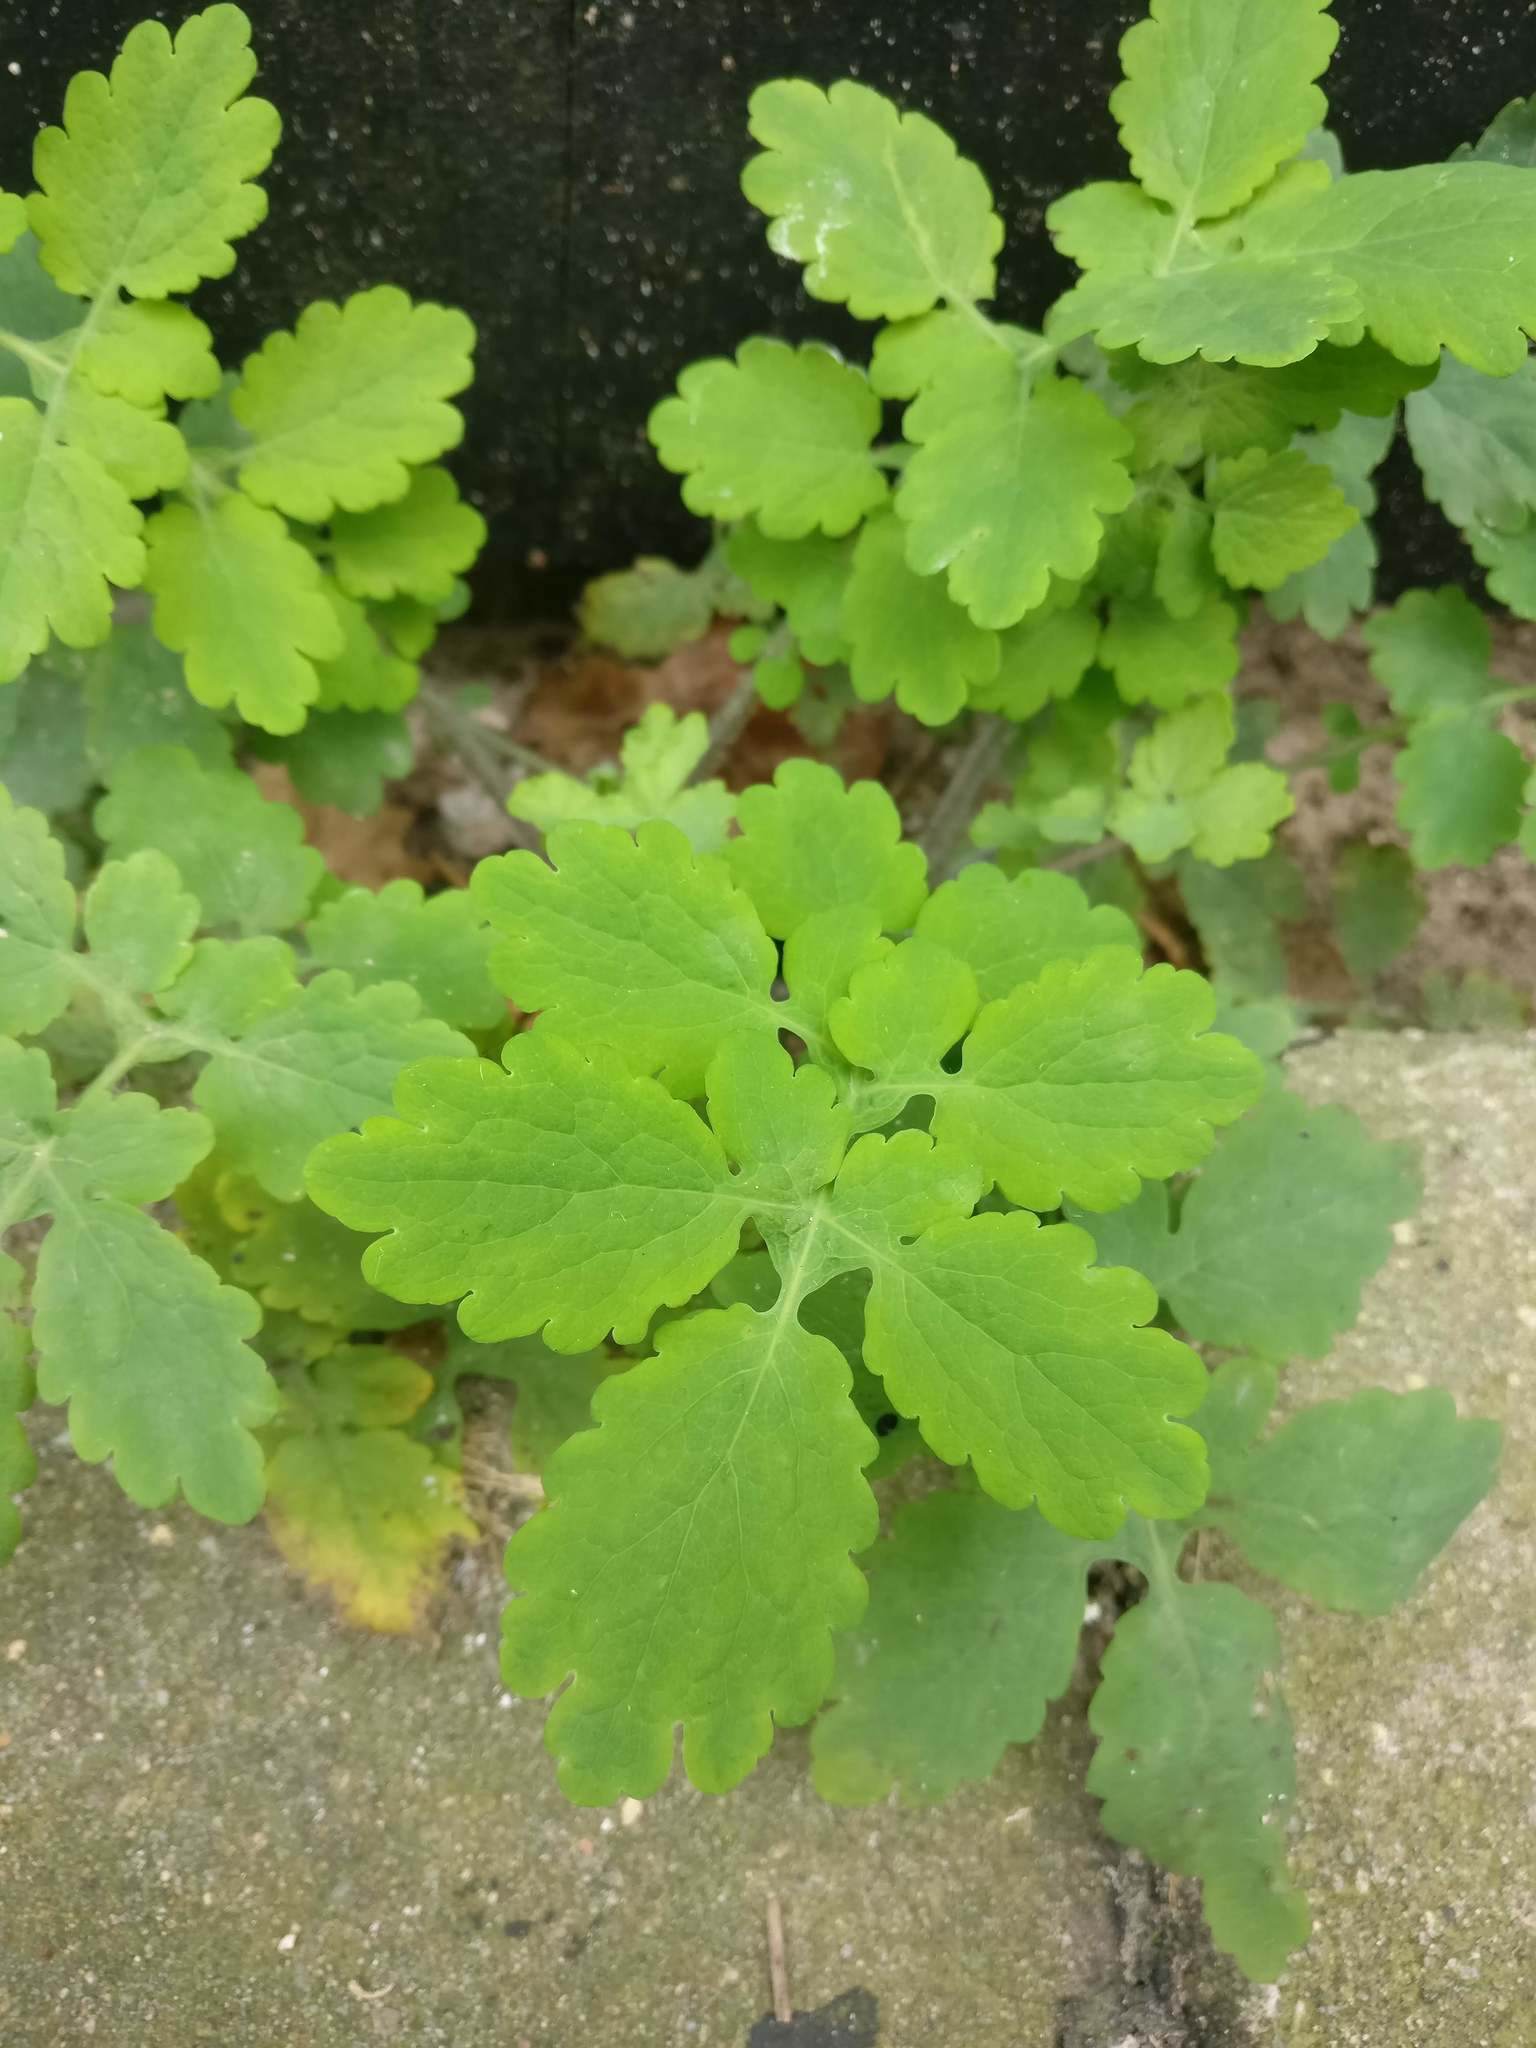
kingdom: Plantae
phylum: Tracheophyta
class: Magnoliopsida
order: Ranunculales
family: Papaveraceae
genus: Chelidonium
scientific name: Chelidonium majus
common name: Greater celandine
